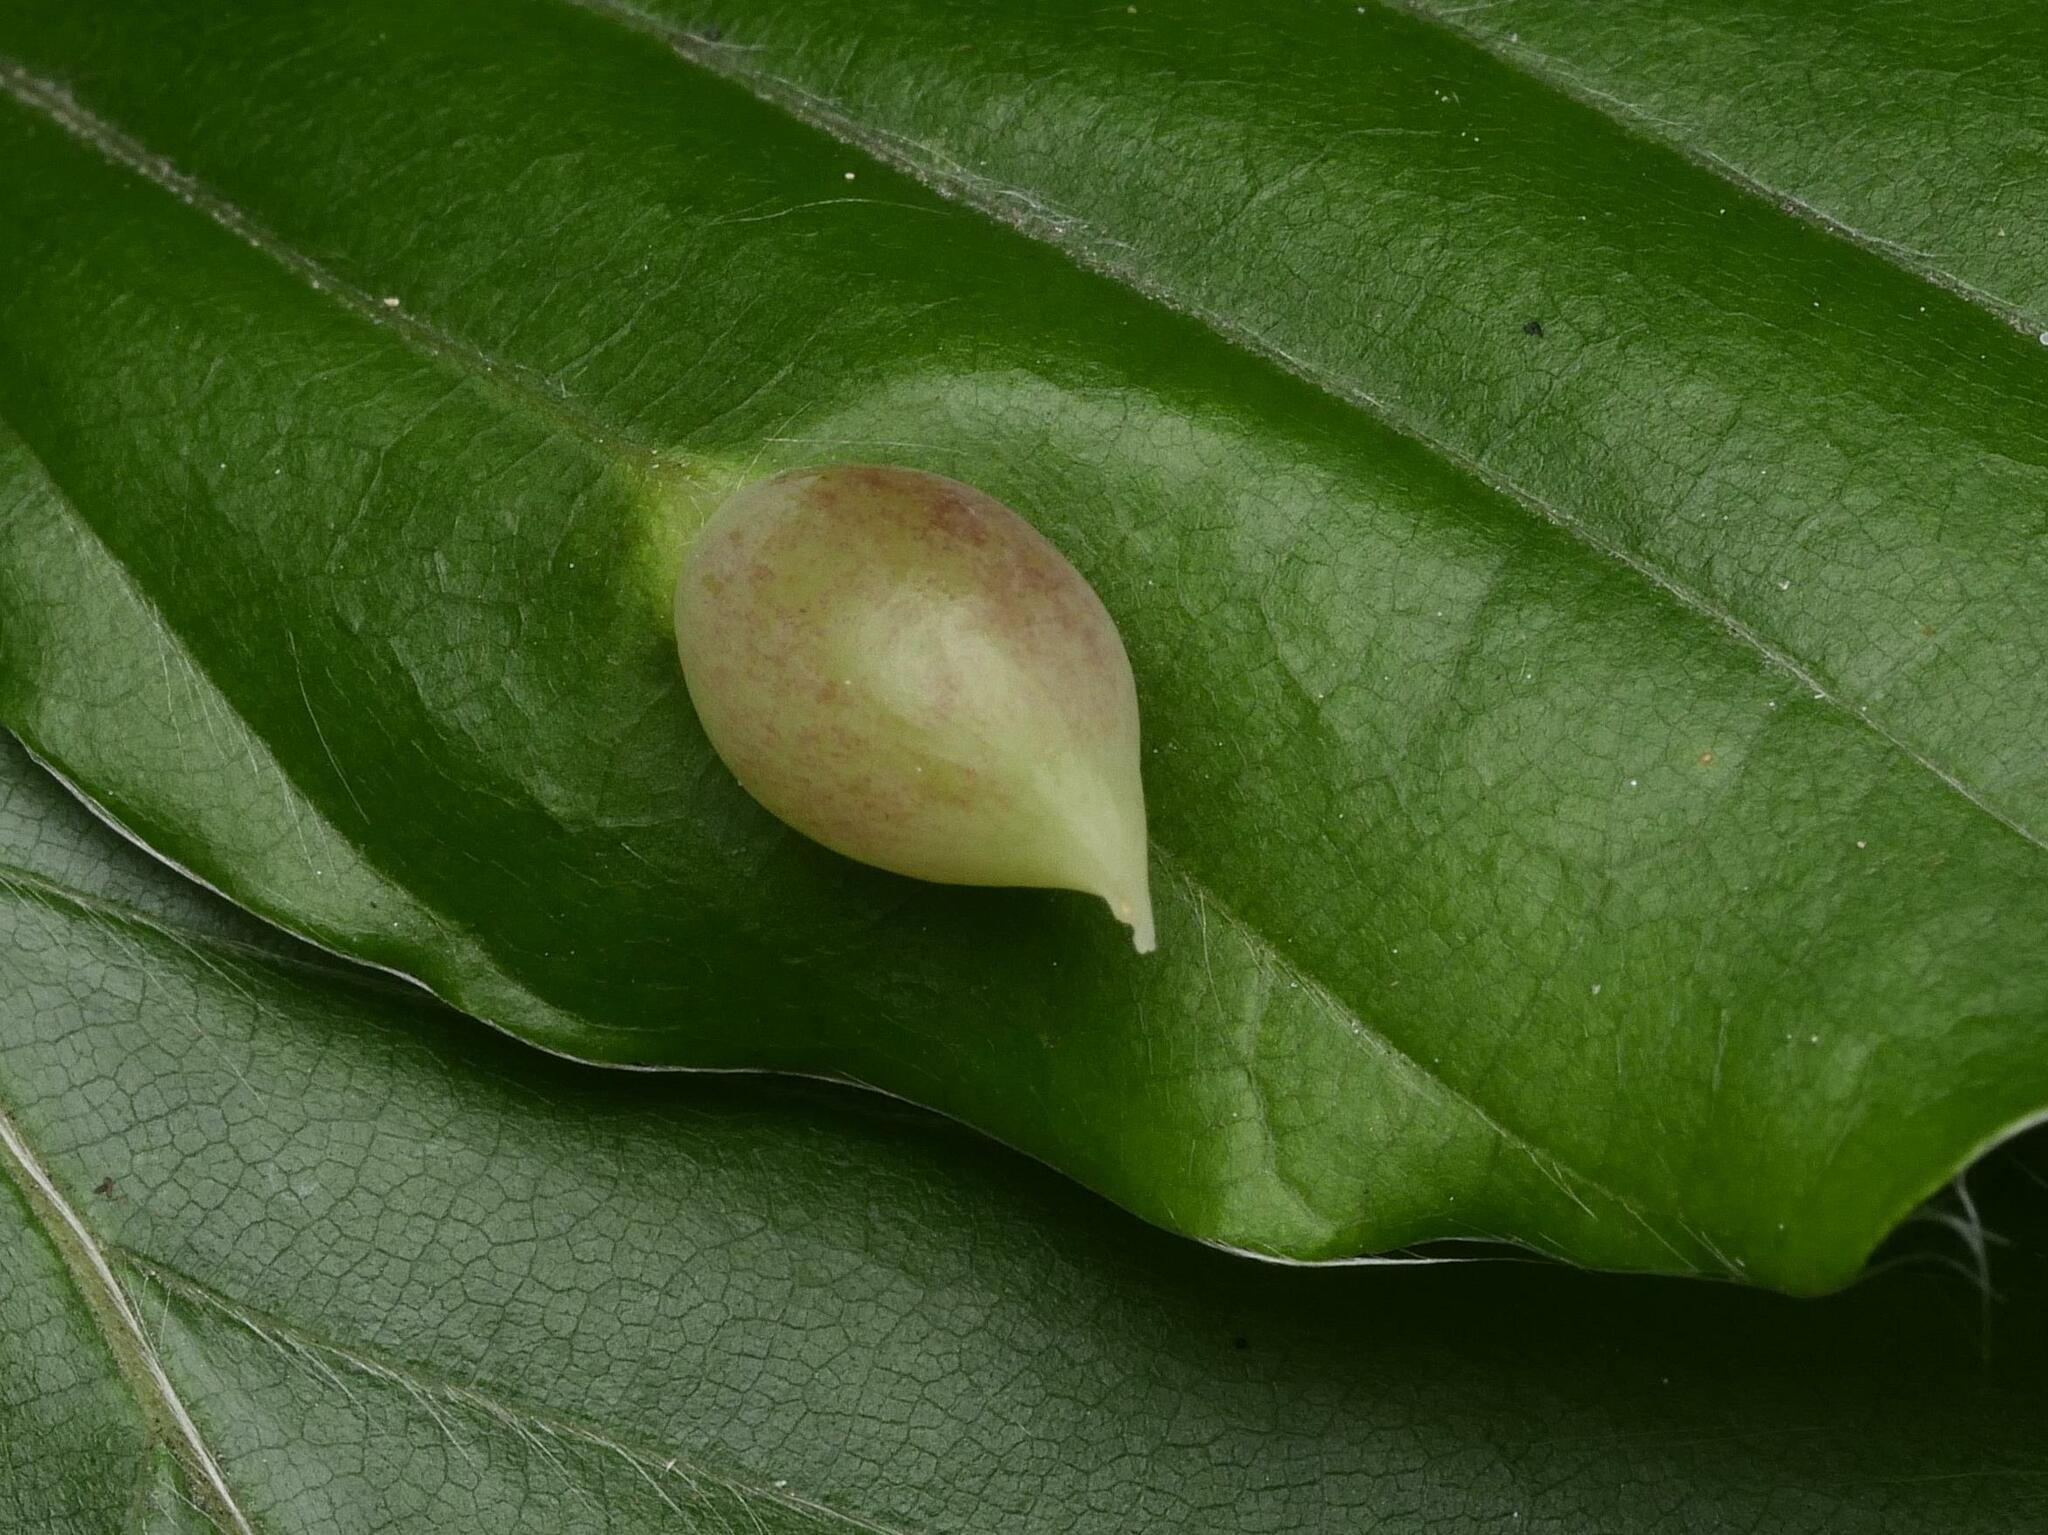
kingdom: Animalia
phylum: Arthropoda
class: Insecta
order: Diptera
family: Cecidomyiidae
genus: Mikiola
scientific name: Mikiola fagi
